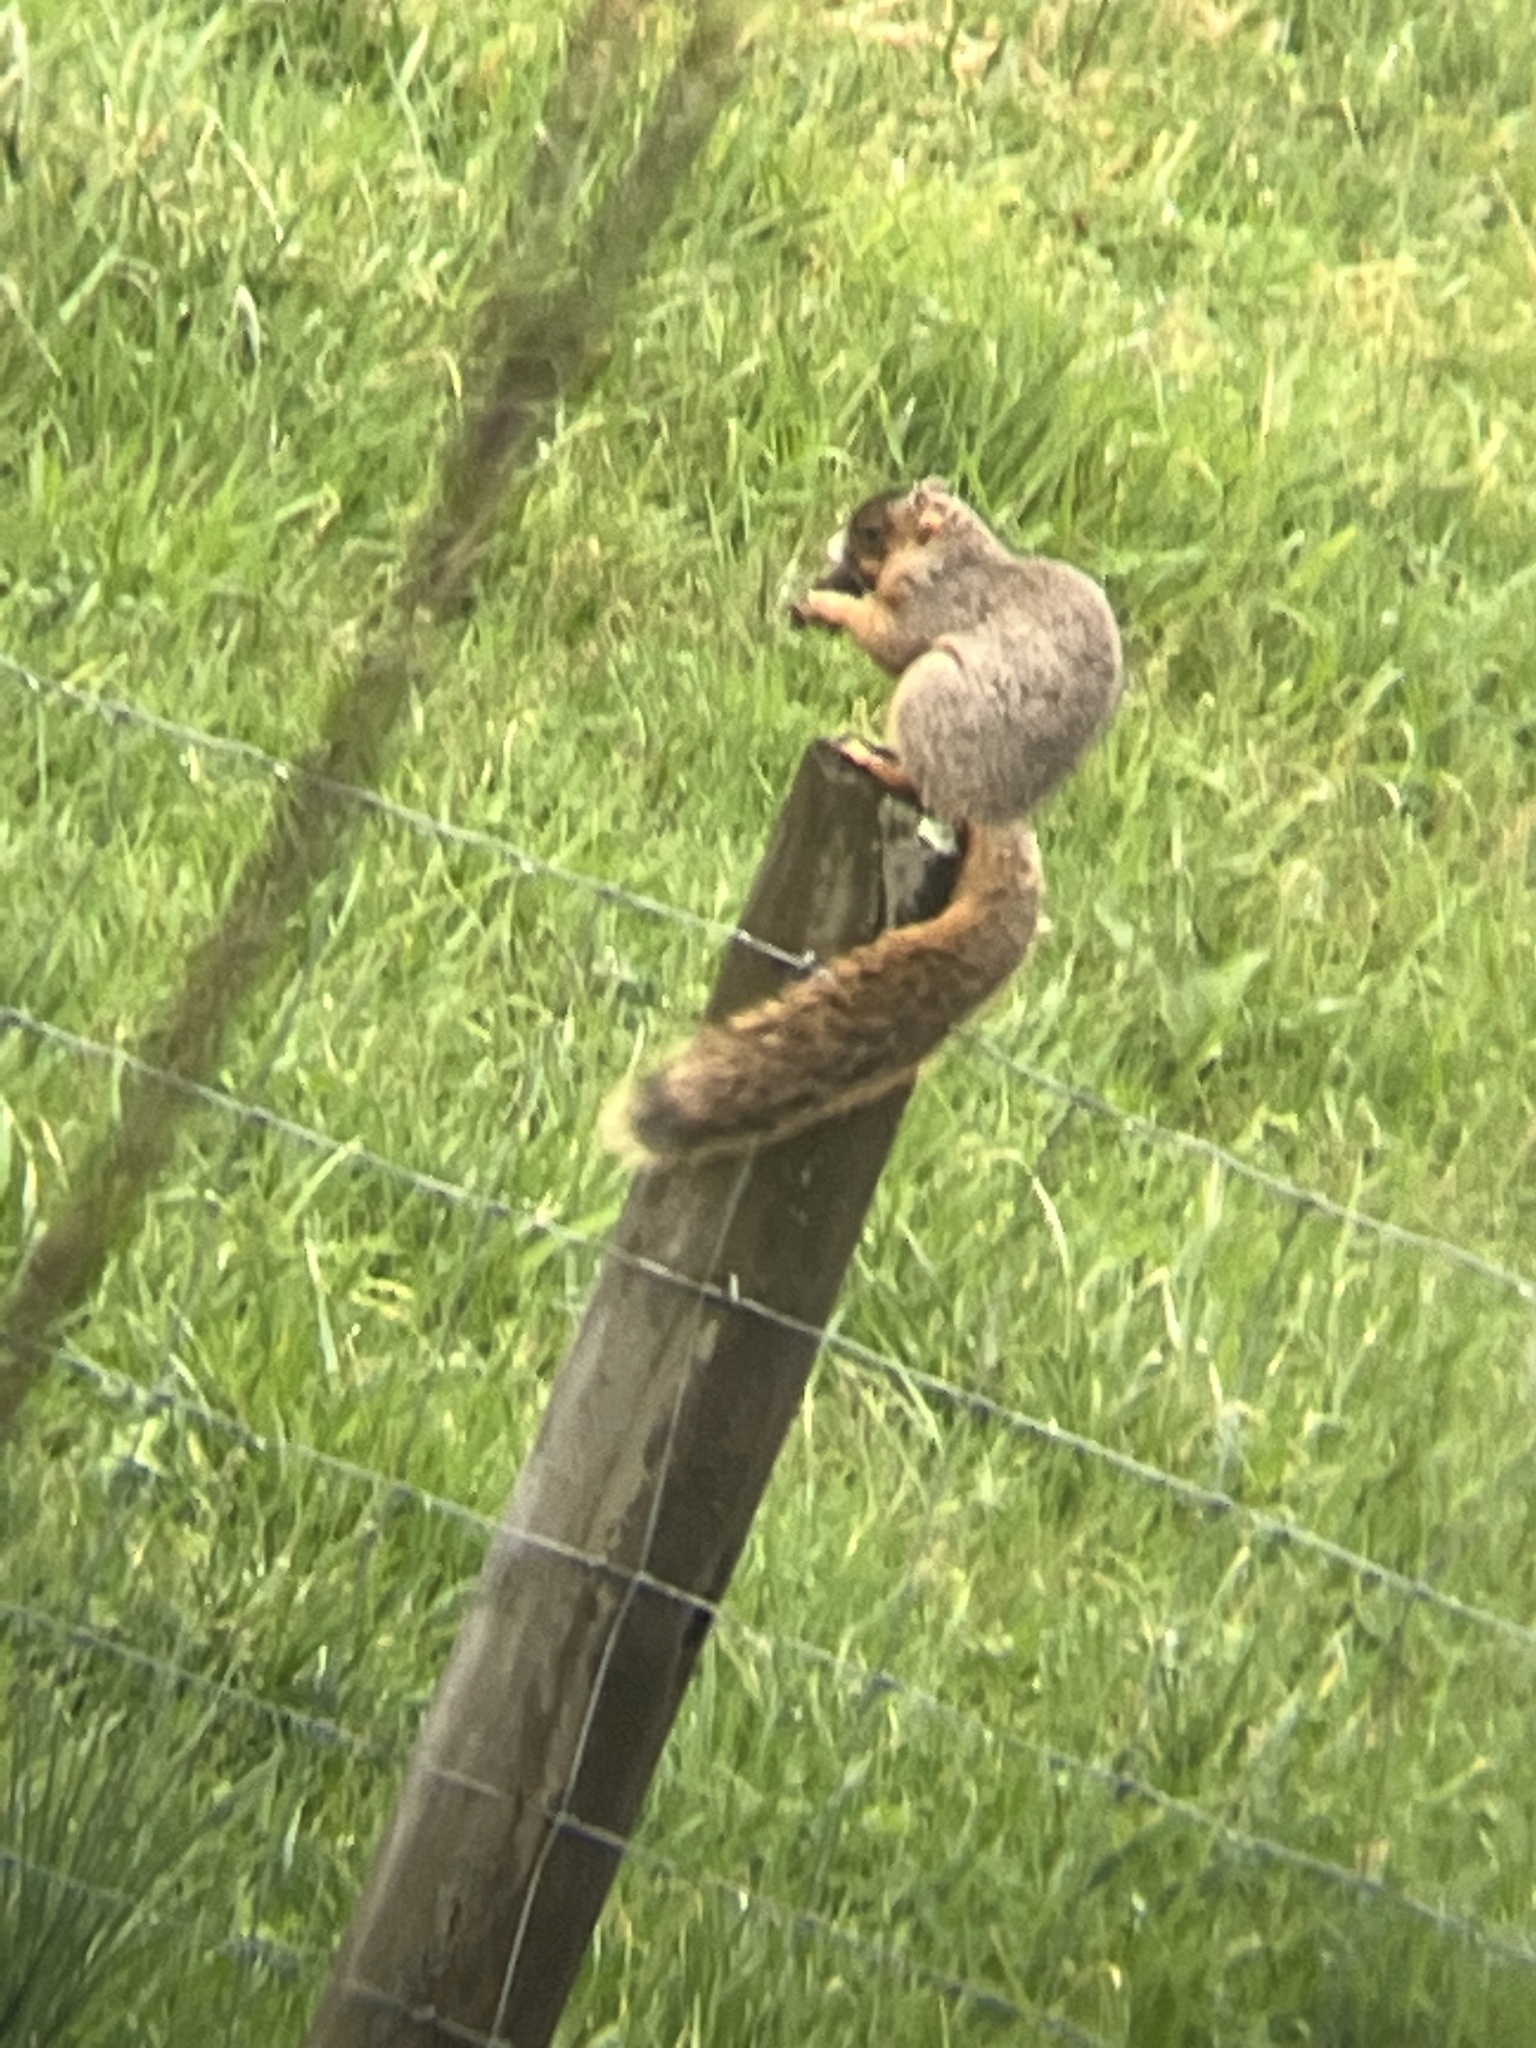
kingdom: Animalia
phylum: Chordata
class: Mammalia
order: Rodentia
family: Sciuridae
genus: Sciurus
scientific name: Sciurus niger
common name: Fox squirrel
